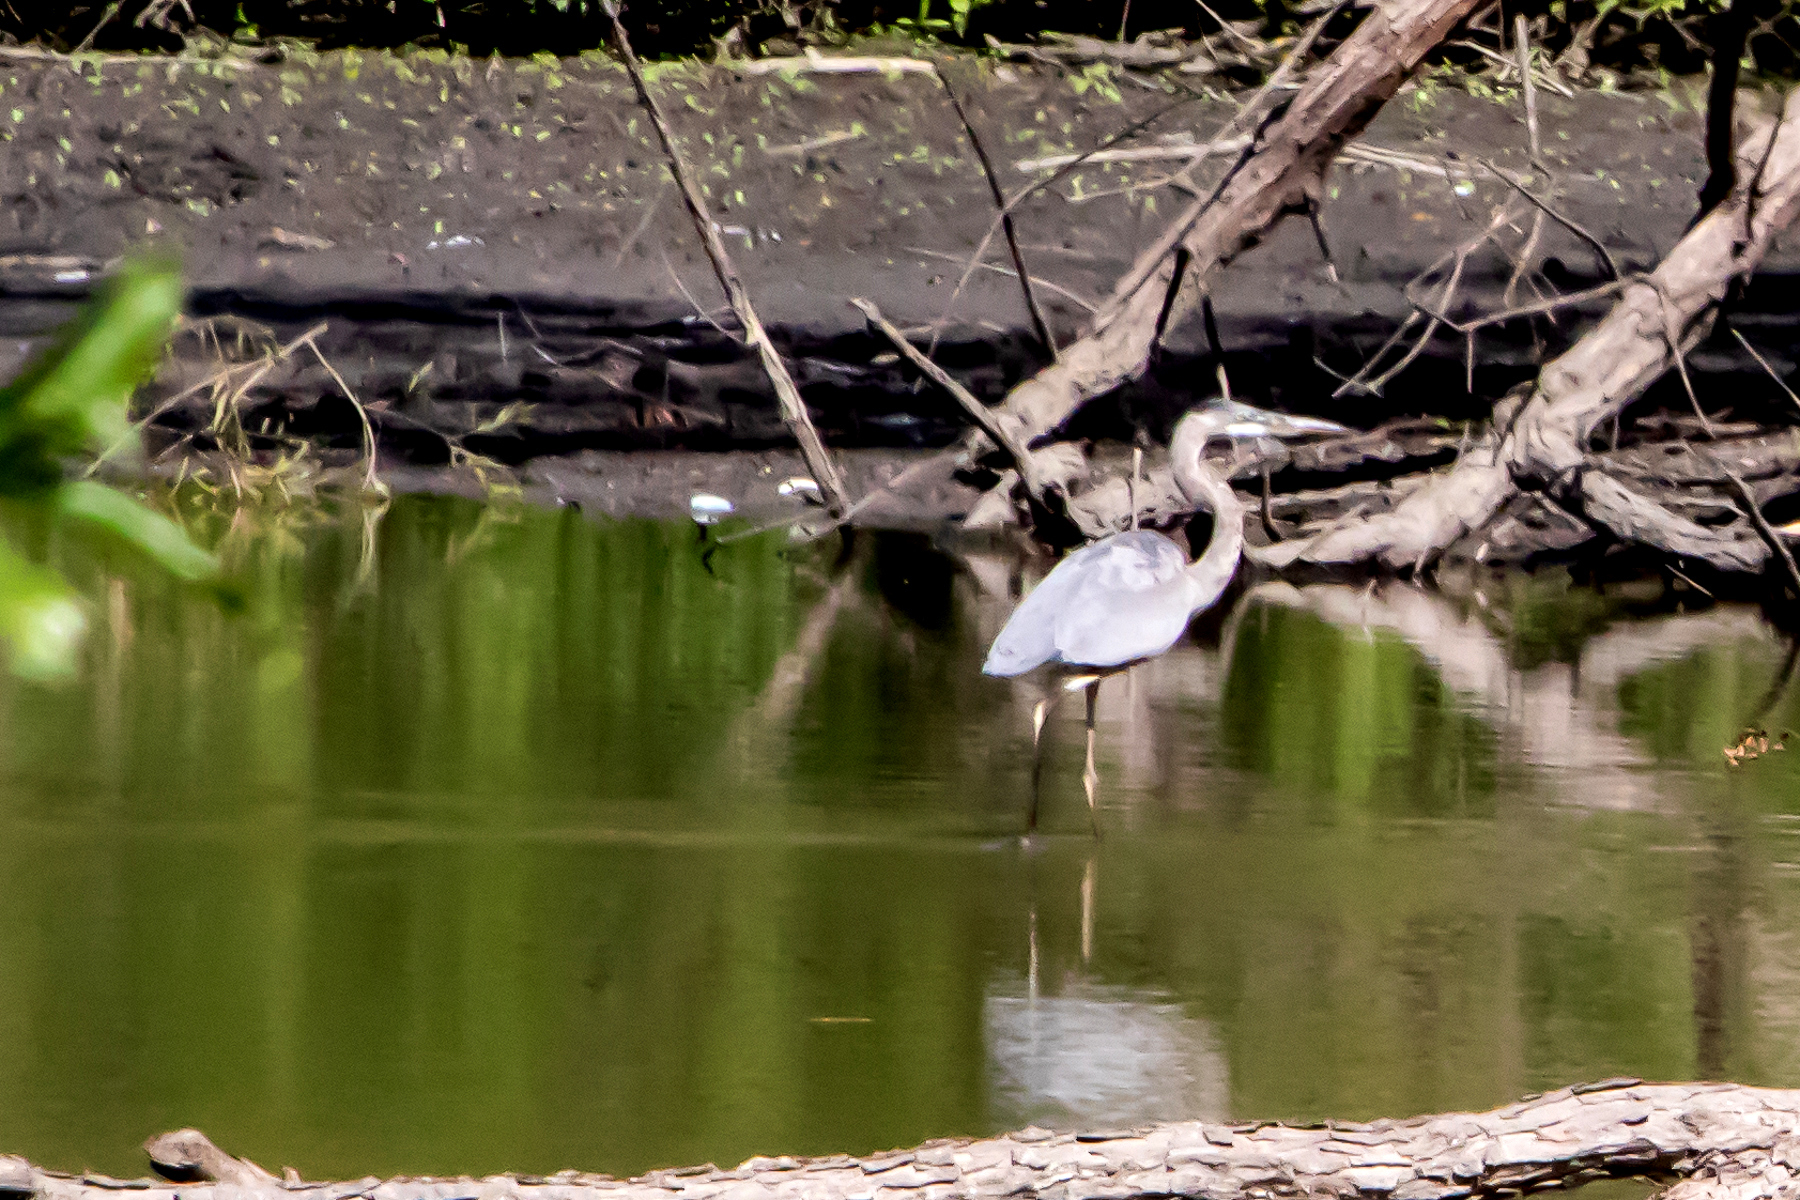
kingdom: Animalia
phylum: Chordata
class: Aves
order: Pelecaniformes
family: Ardeidae
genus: Ardea
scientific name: Ardea herodias
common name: Great blue heron
